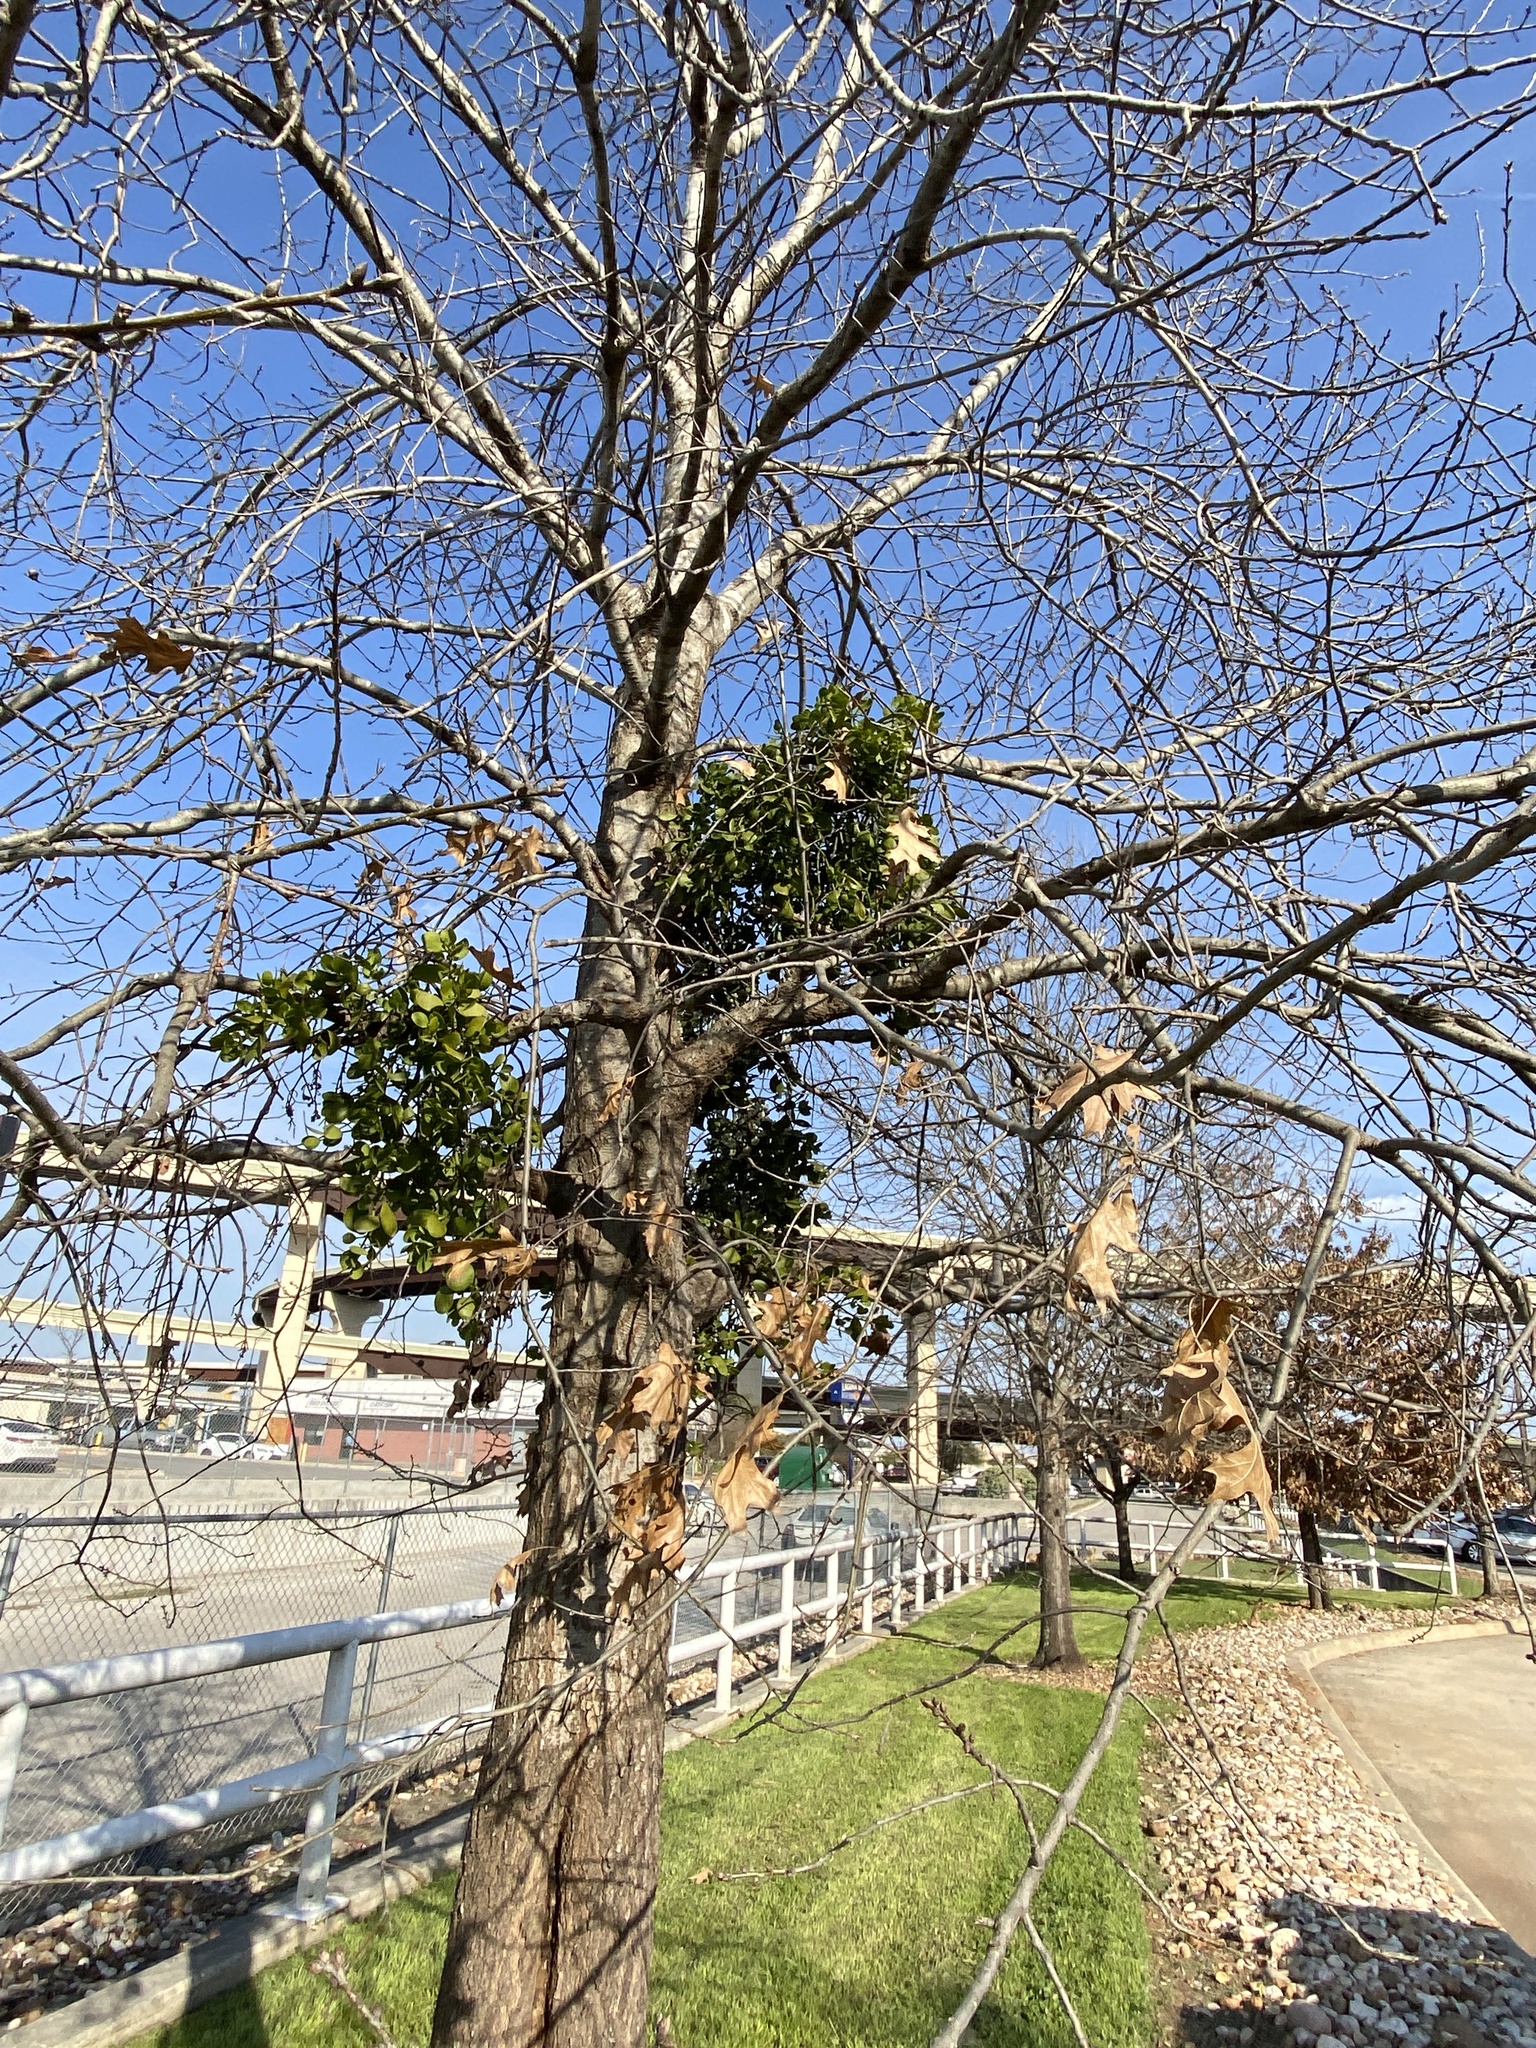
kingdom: Plantae
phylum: Tracheophyta
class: Magnoliopsida
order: Santalales
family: Viscaceae
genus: Phoradendron
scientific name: Phoradendron leucarpum
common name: Pacific mistletoe
